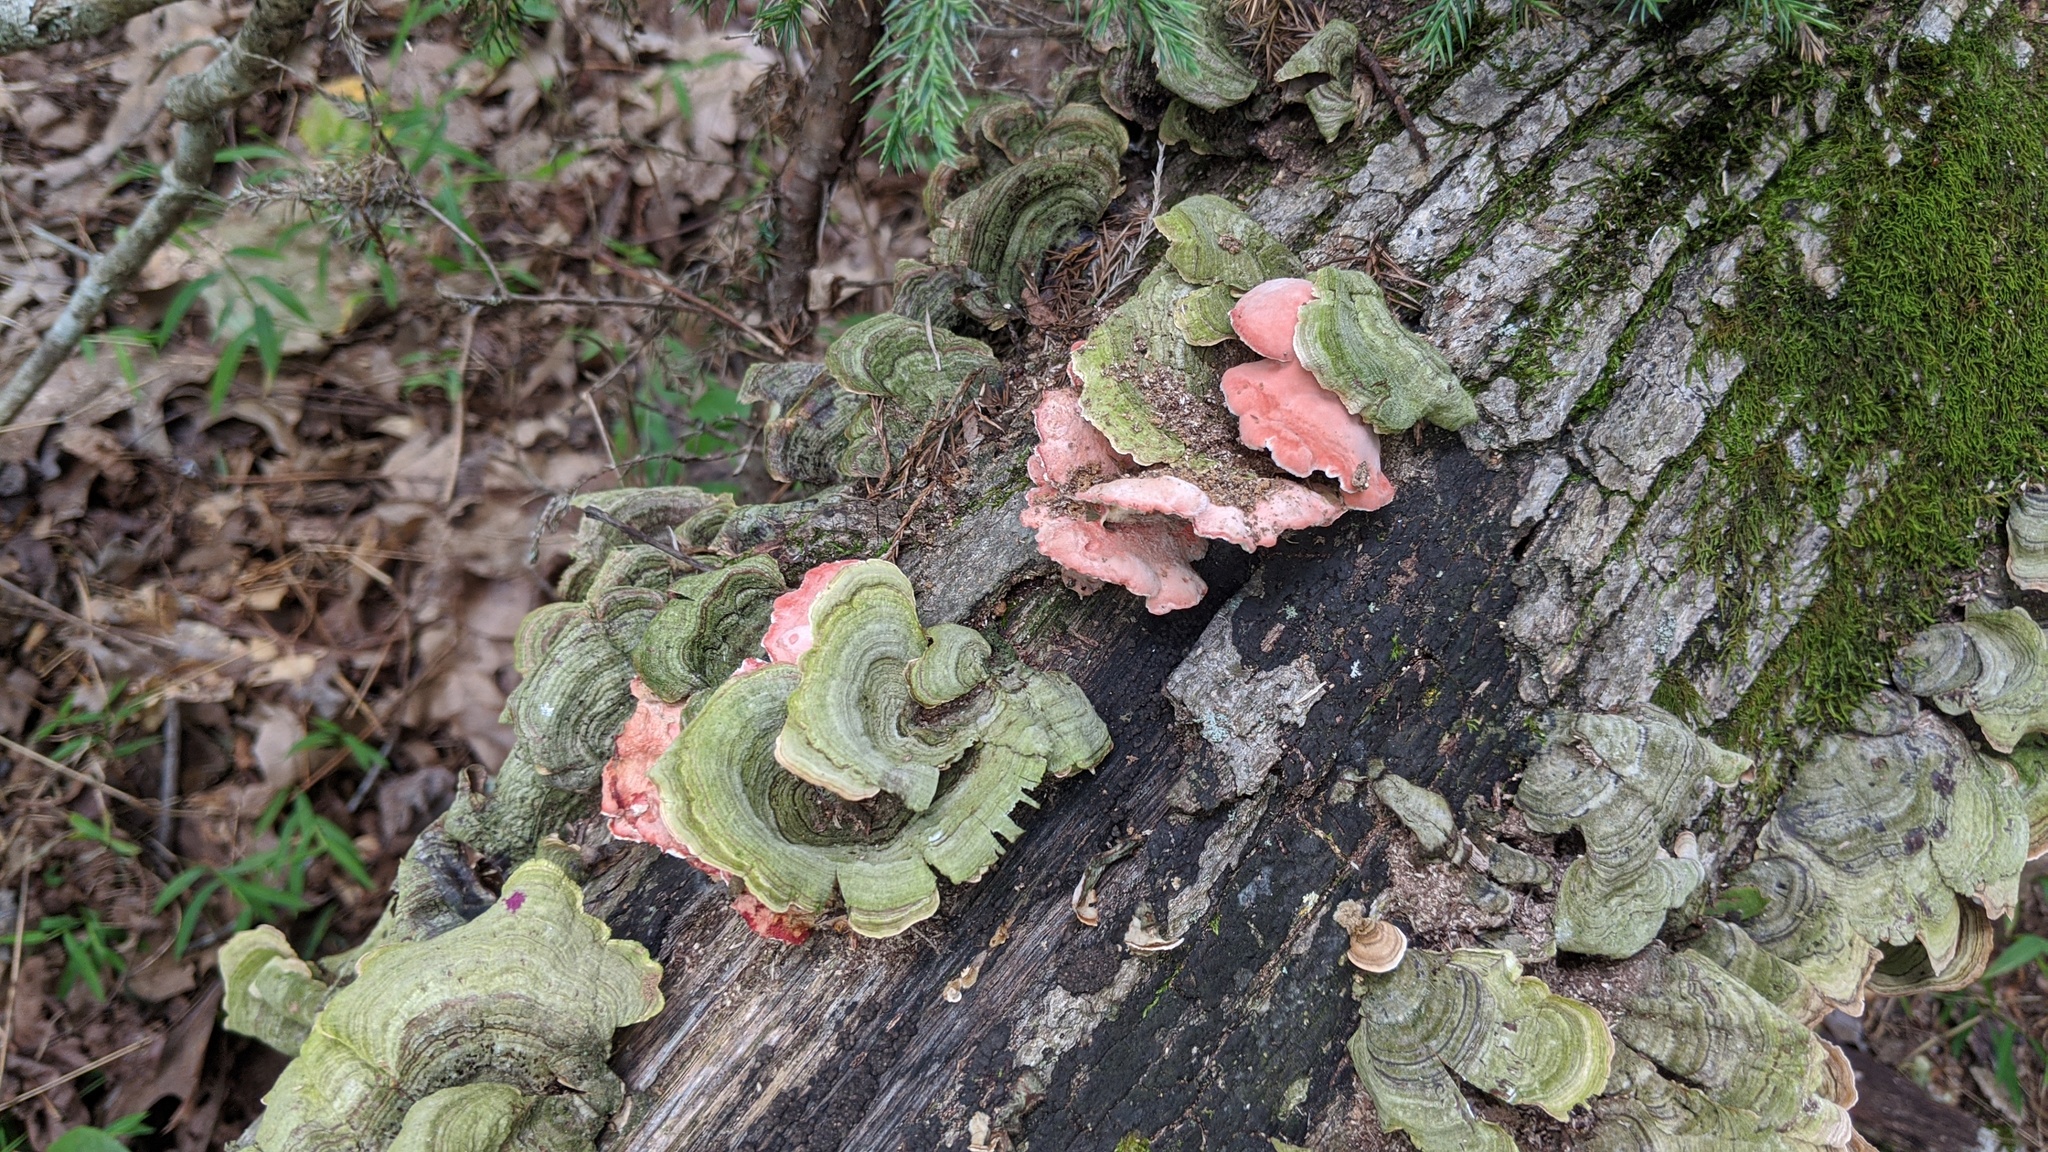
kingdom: Fungi
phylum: Basidiomycota
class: Agaricomycetes
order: Polyporales
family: Irpicaceae
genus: Byssomerulius
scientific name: Byssomerulius incarnatus
